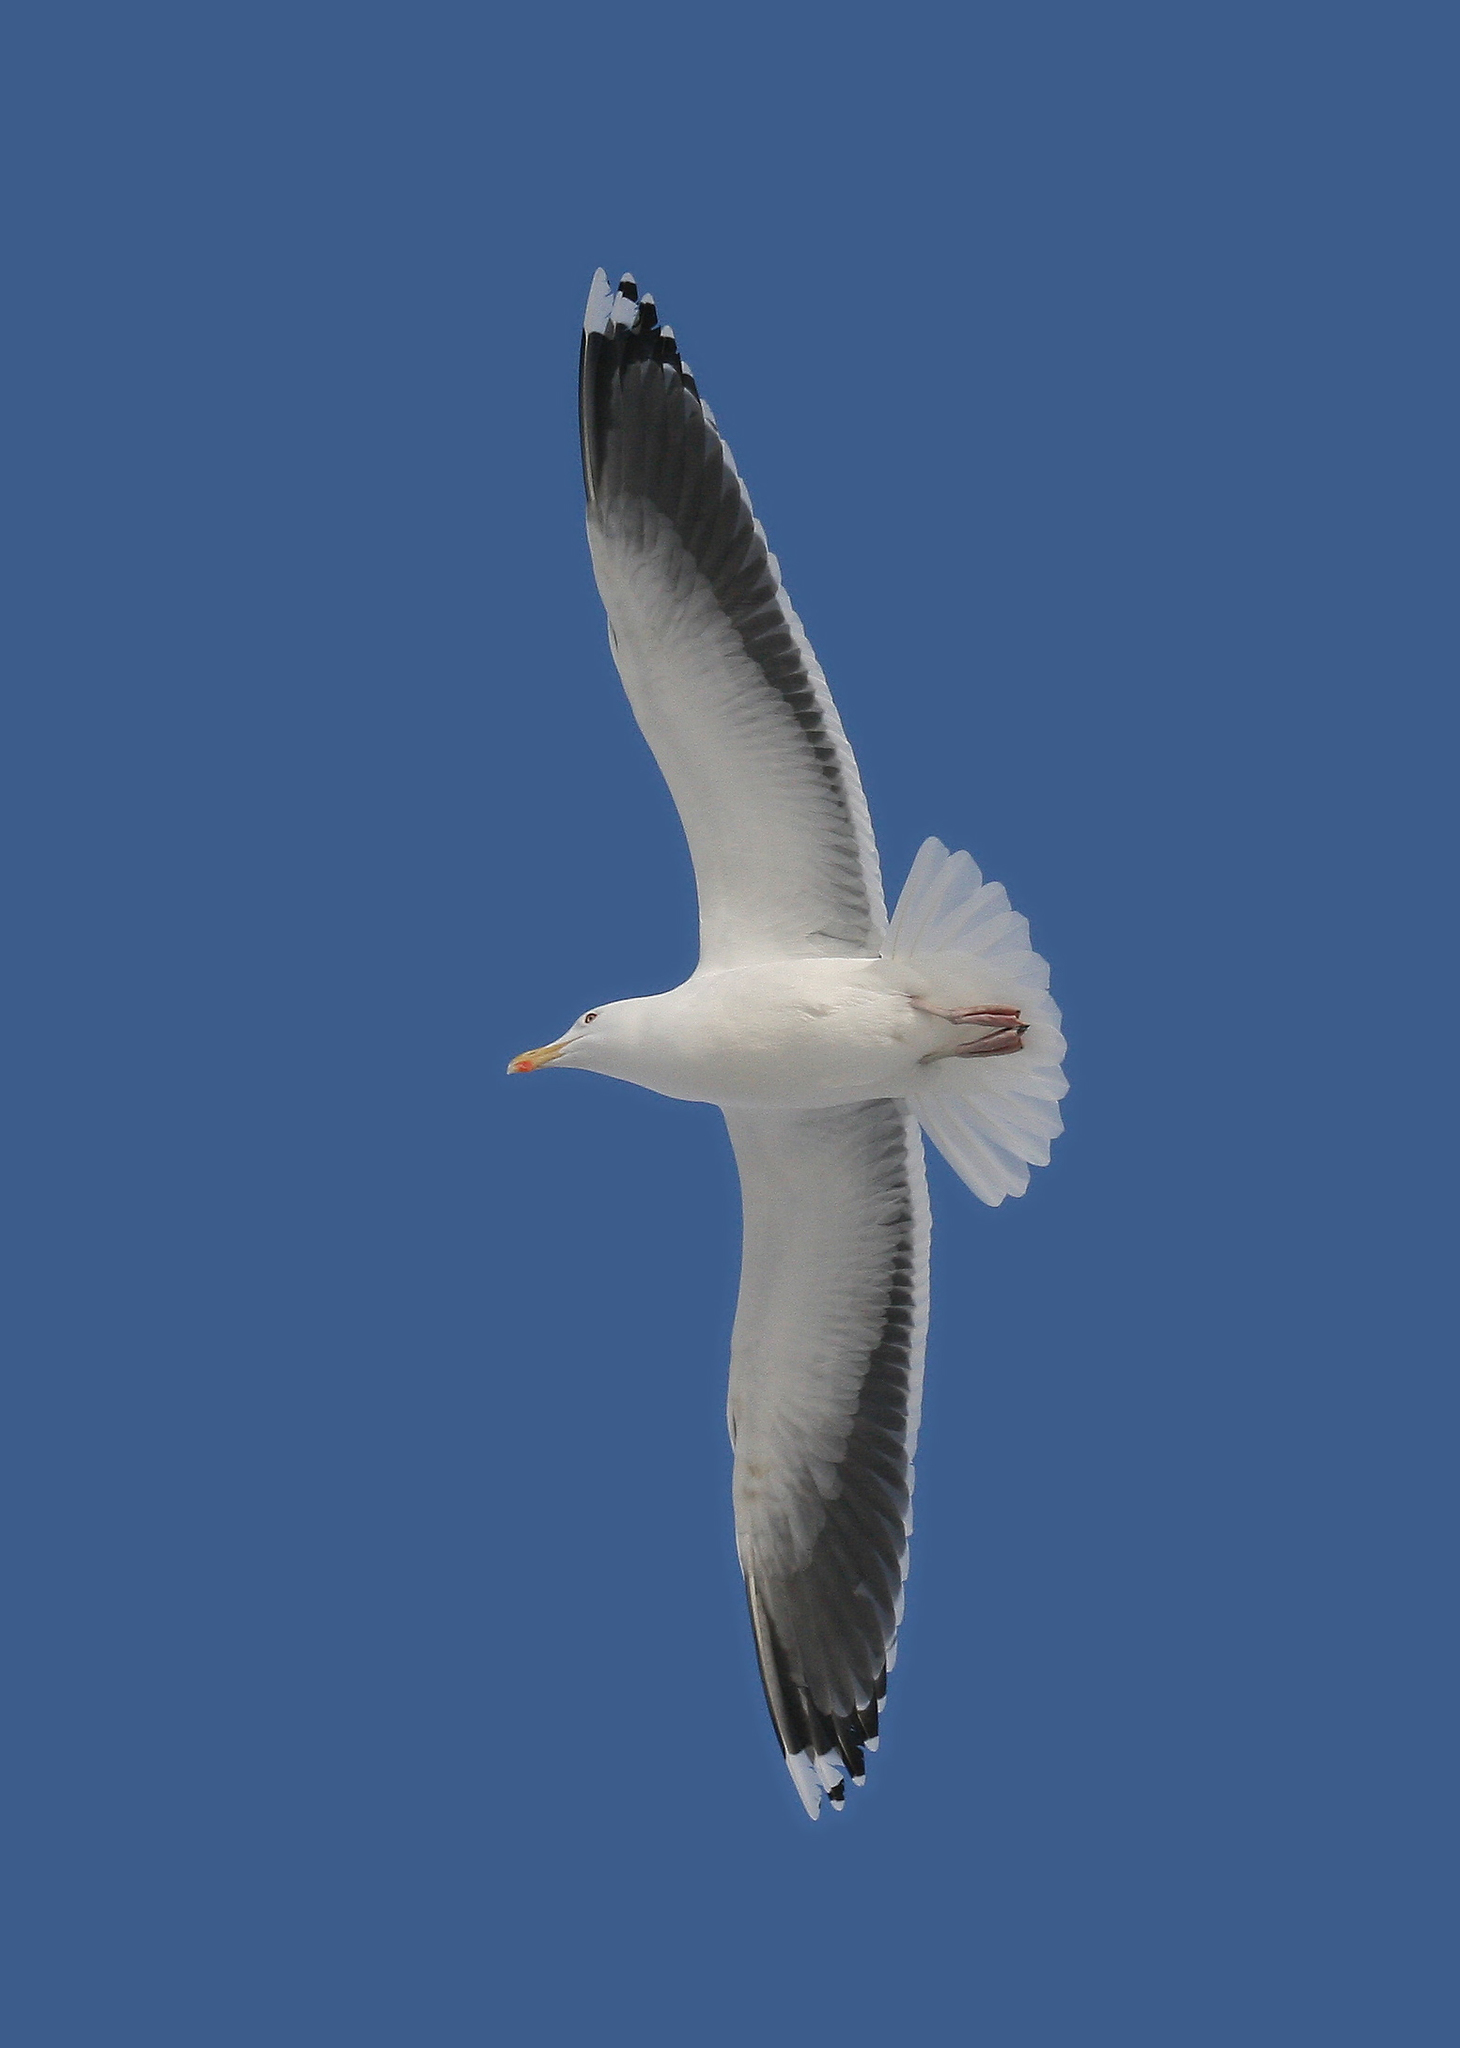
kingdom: Animalia
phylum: Chordata
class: Aves
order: Charadriiformes
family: Laridae
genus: Larus
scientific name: Larus marinus
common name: Great black-backed gull
